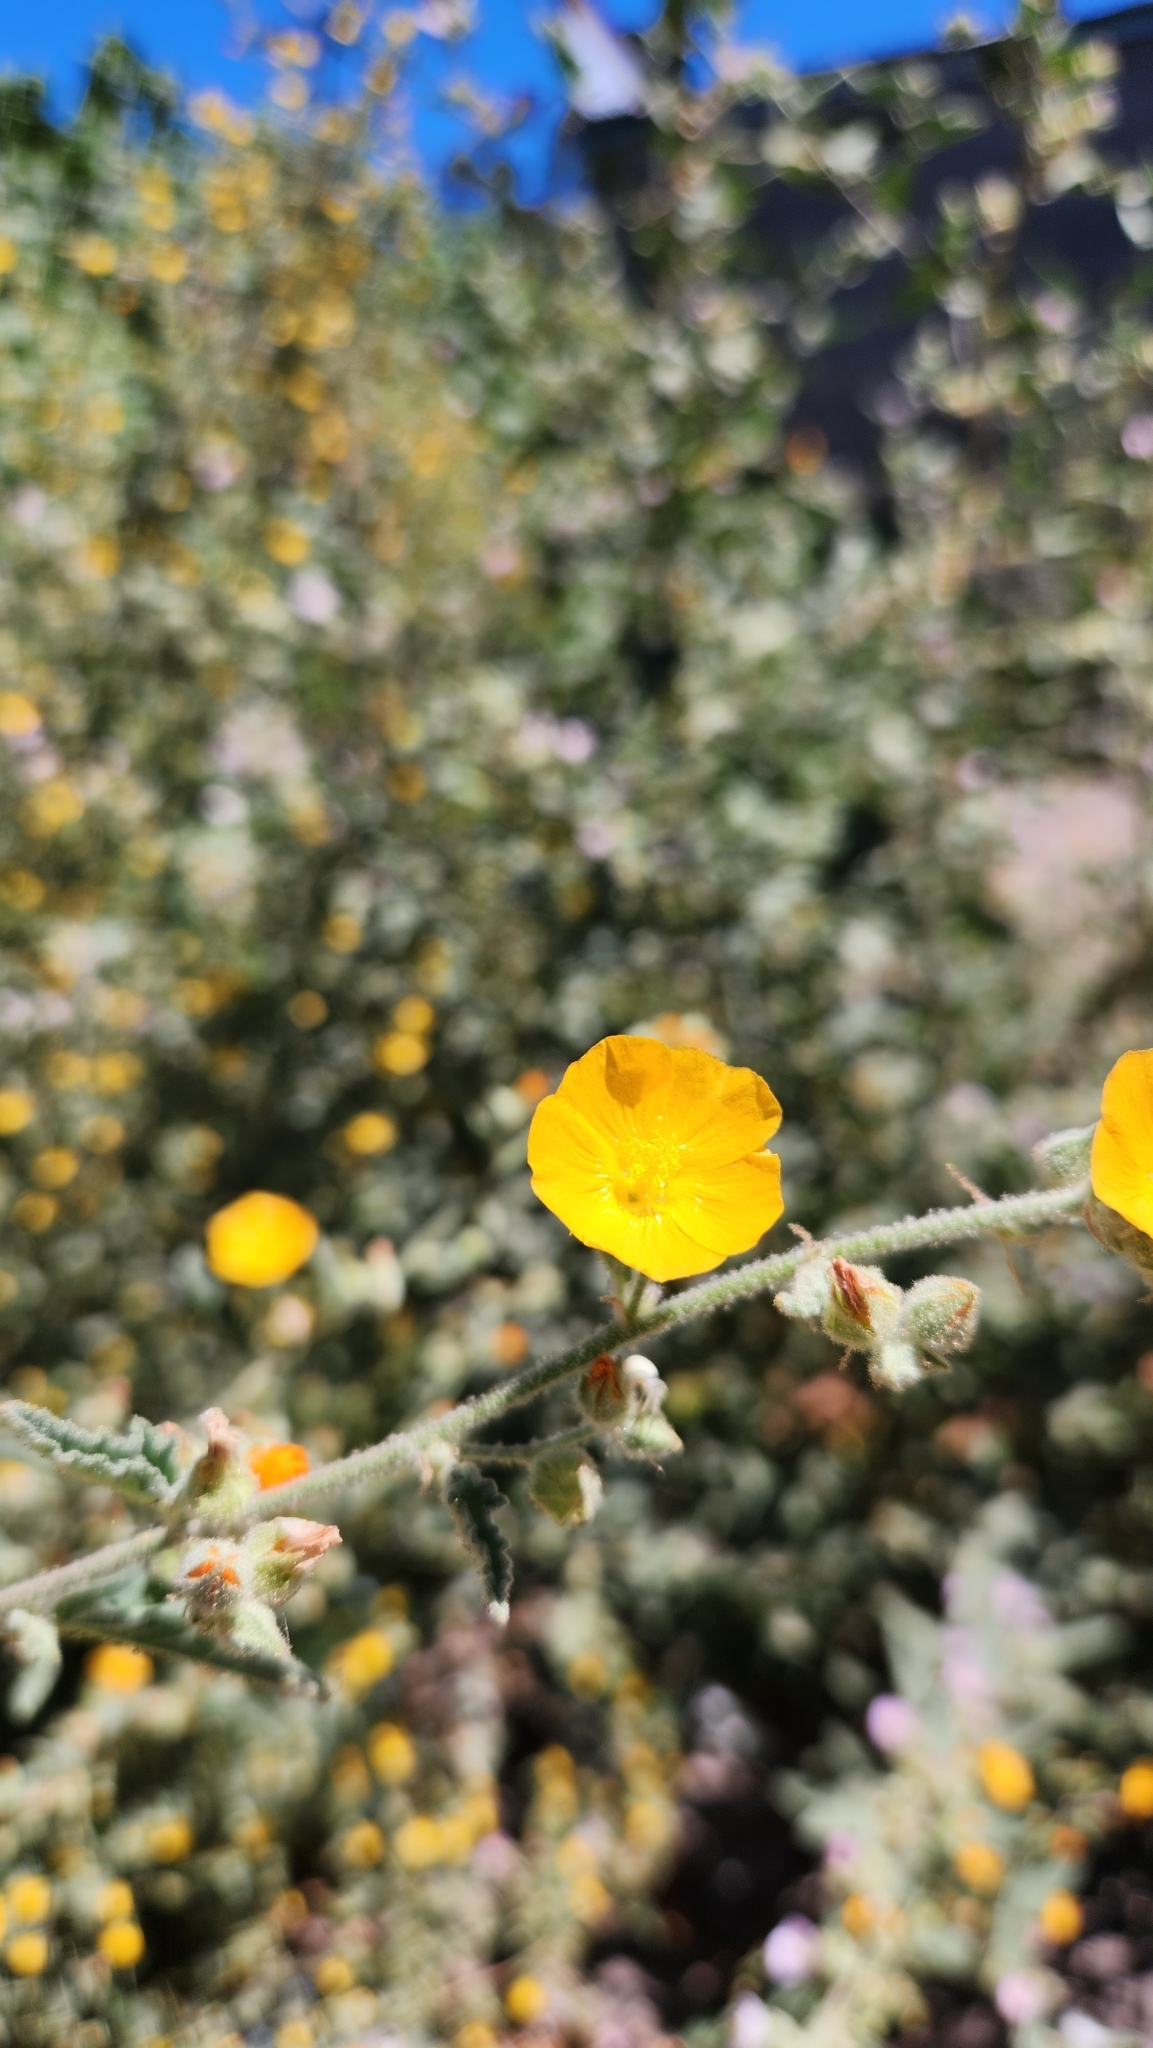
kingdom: Plantae
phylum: Tracheophyta
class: Magnoliopsida
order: Malvales
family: Malvaceae
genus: Sphaeralcea
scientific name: Sphaeralcea coulteri
